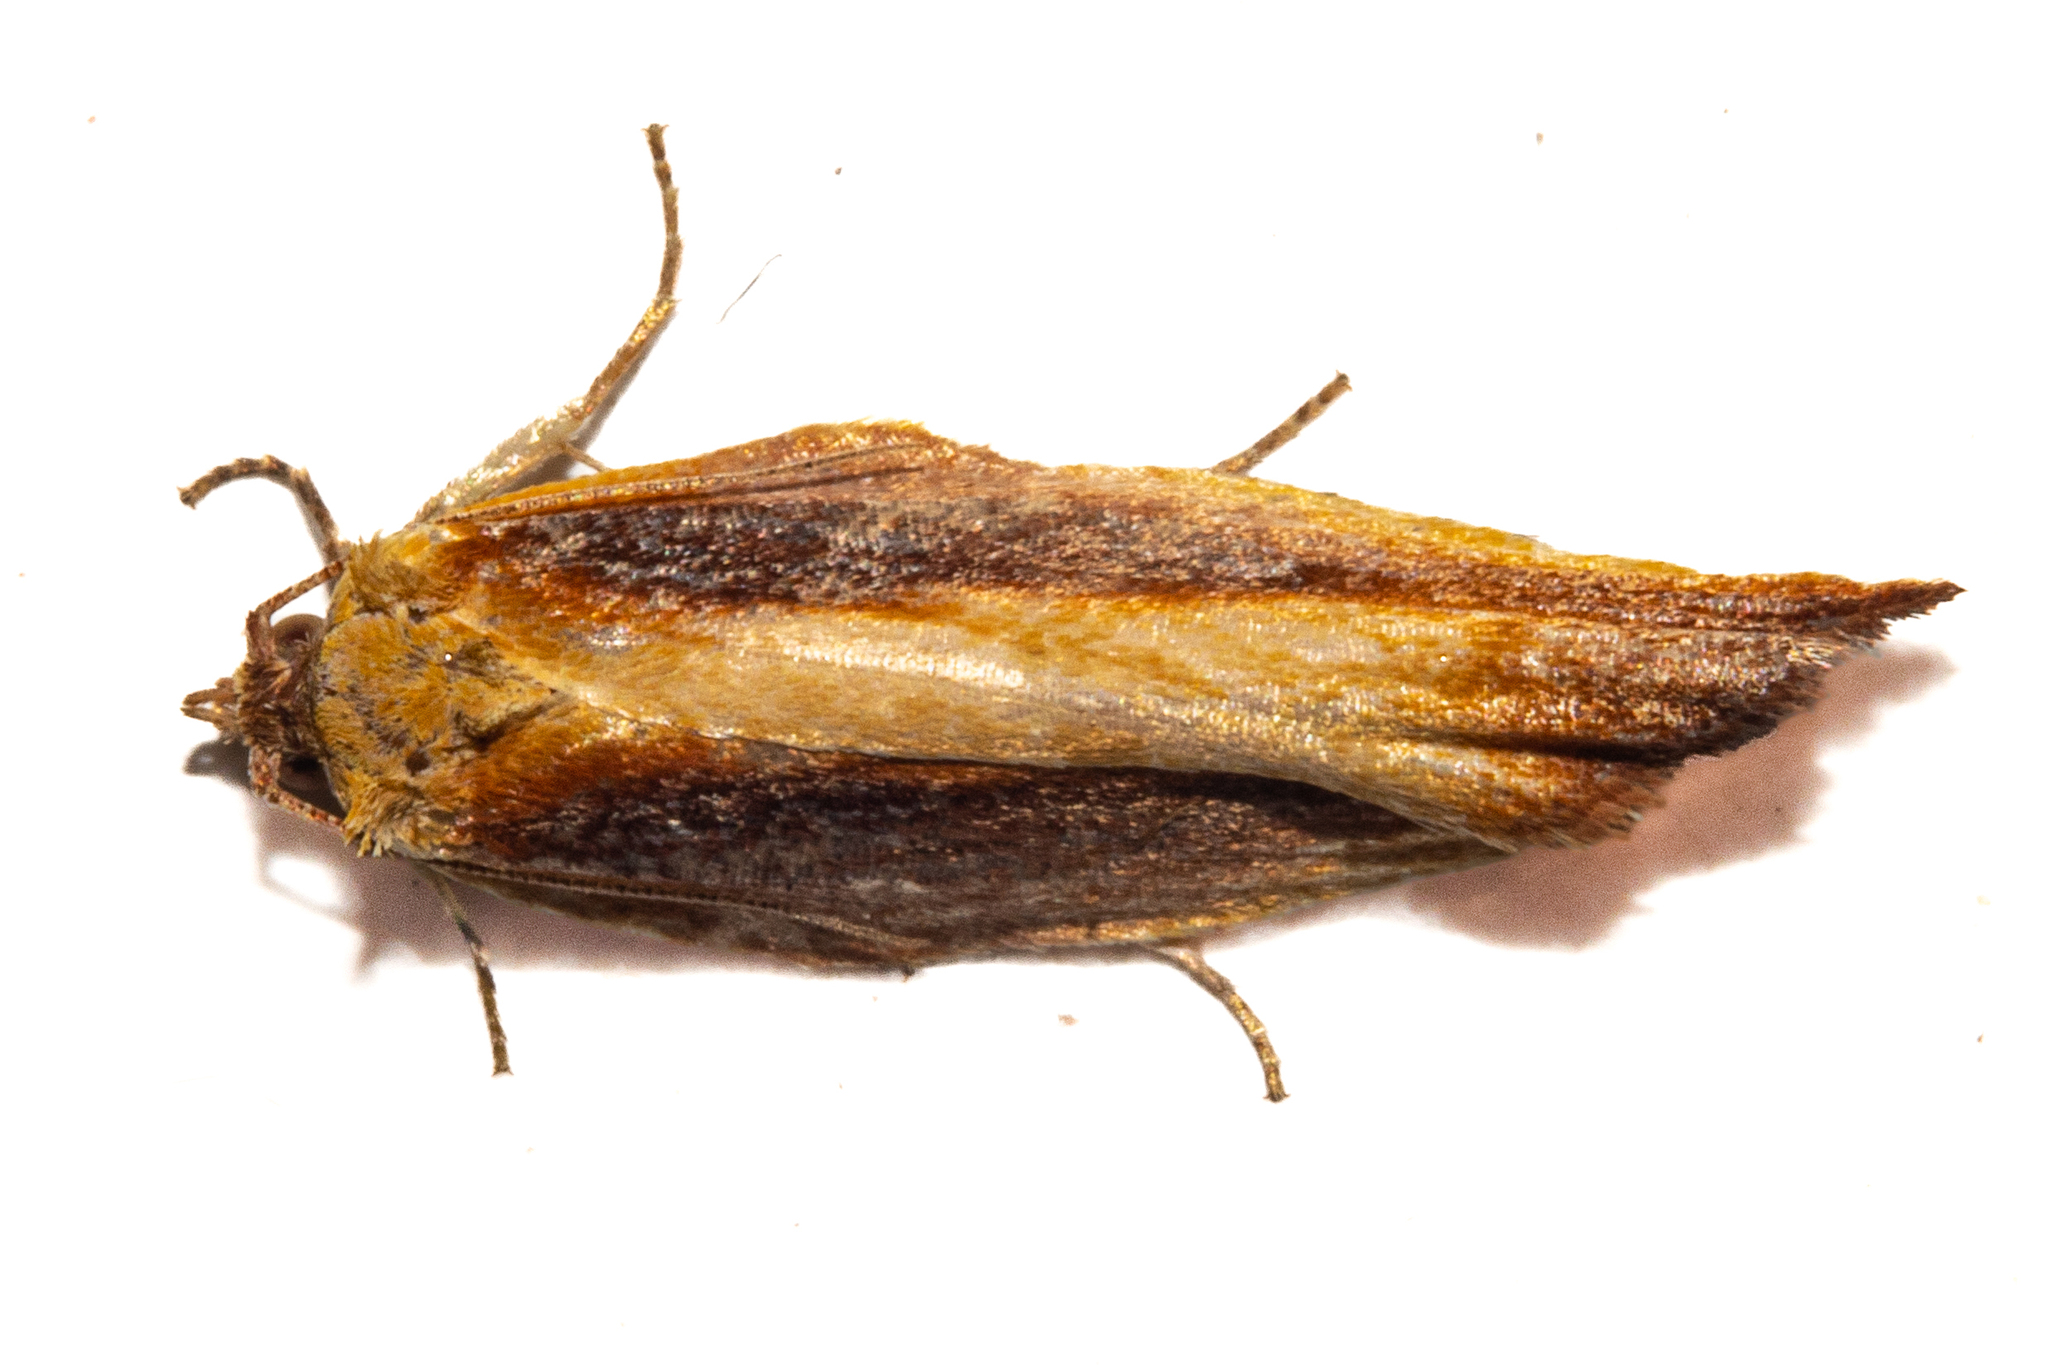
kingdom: Animalia
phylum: Arthropoda
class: Insecta
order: Lepidoptera
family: Tortricidae
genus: Epalxiphora
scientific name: Epalxiphora axenana
